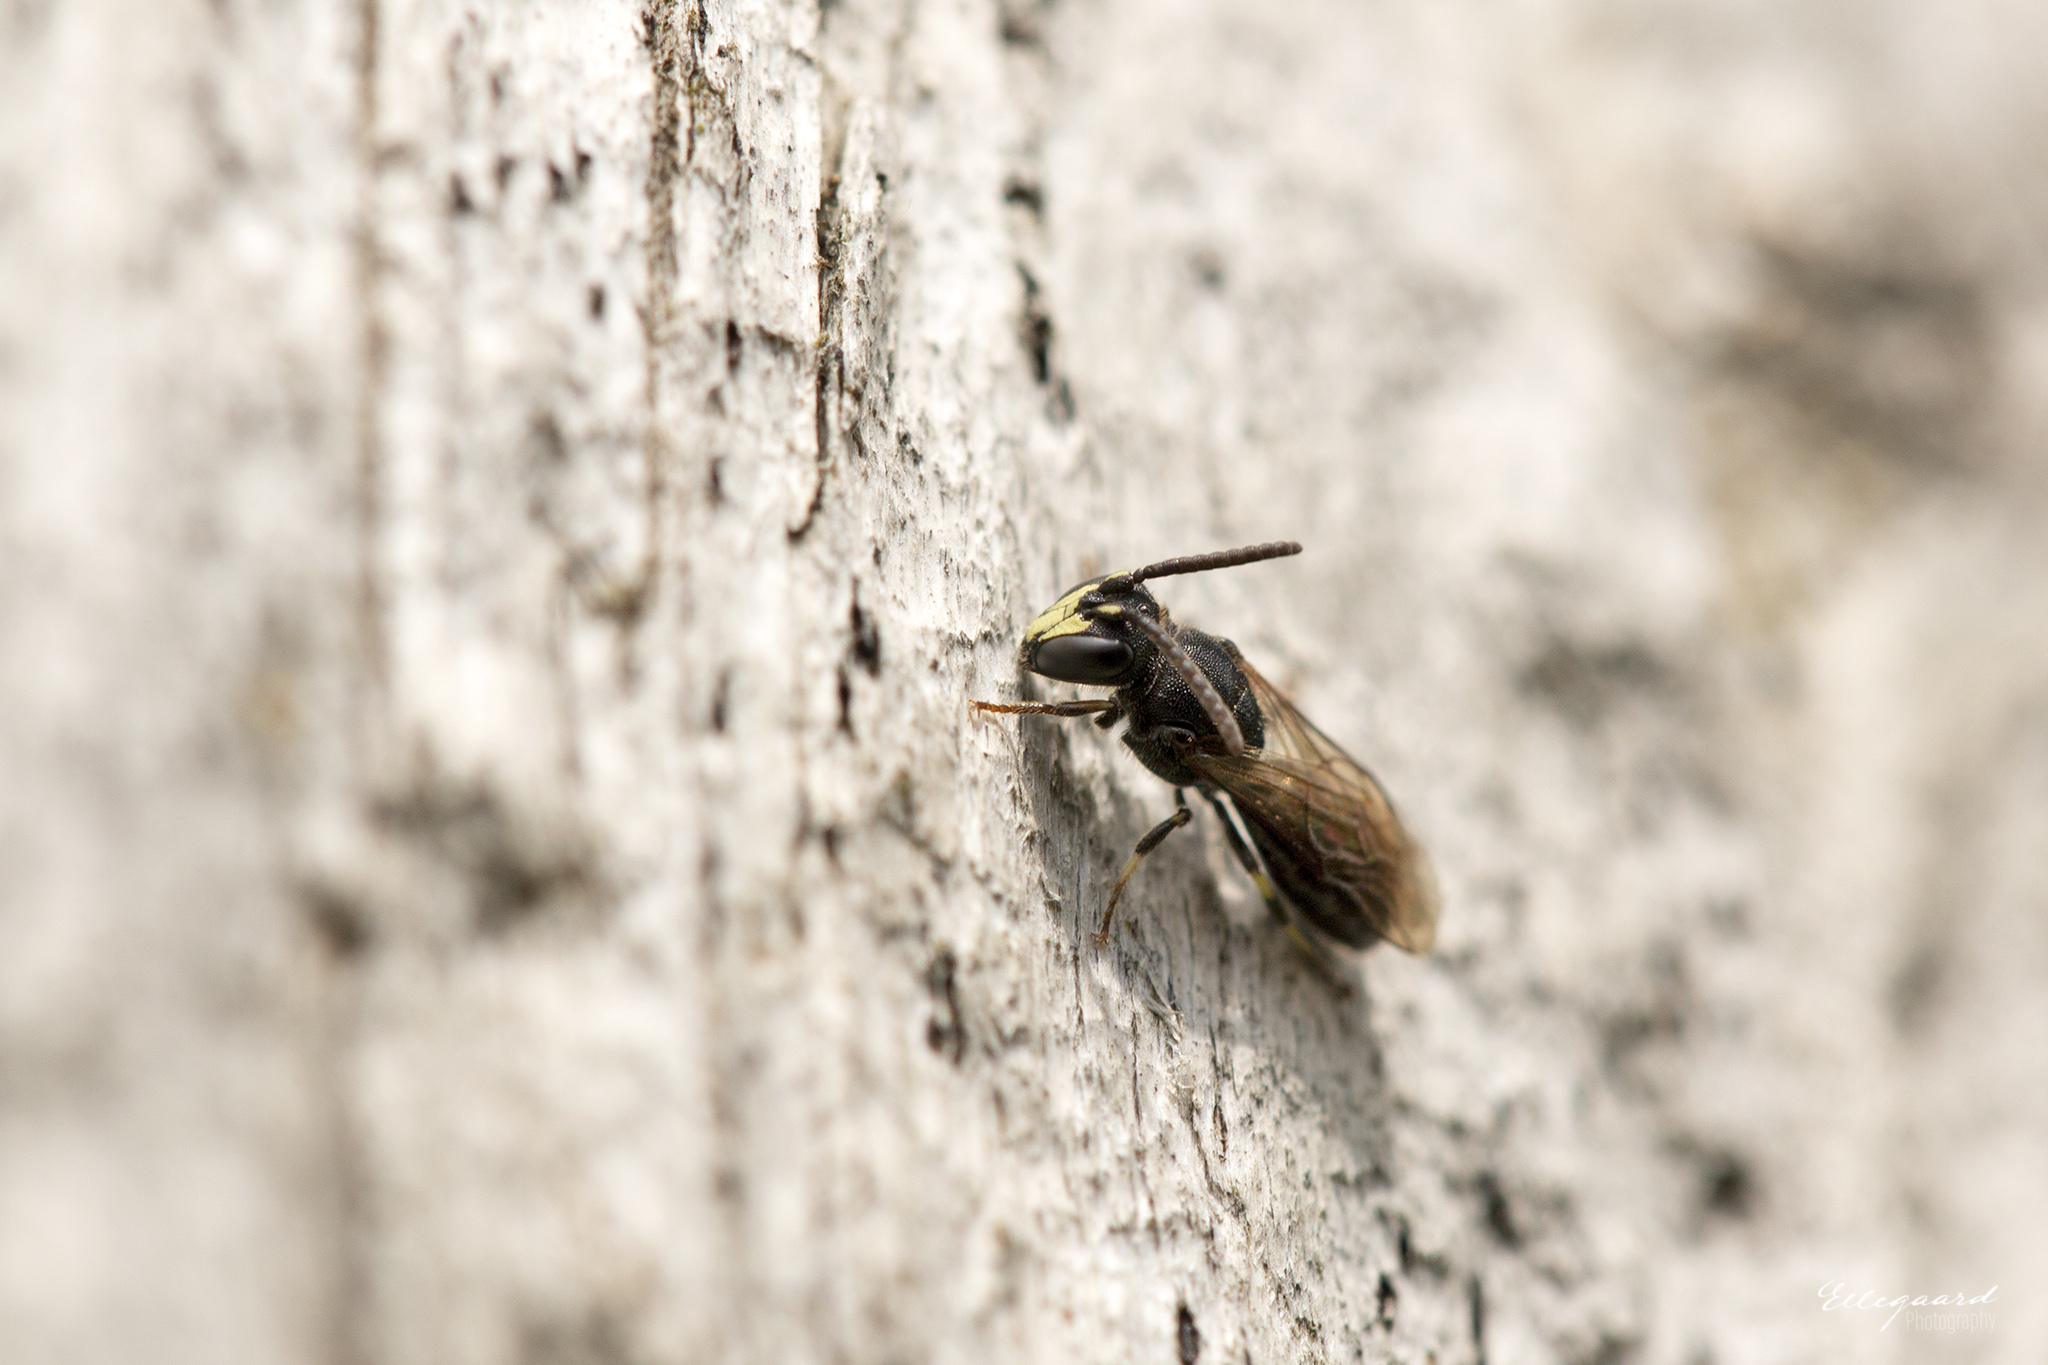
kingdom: Animalia
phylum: Arthropoda
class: Insecta
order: Hymenoptera
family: Colletidae
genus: Hylaeus
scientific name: Hylaeus communis
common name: Common yellow-face bee
